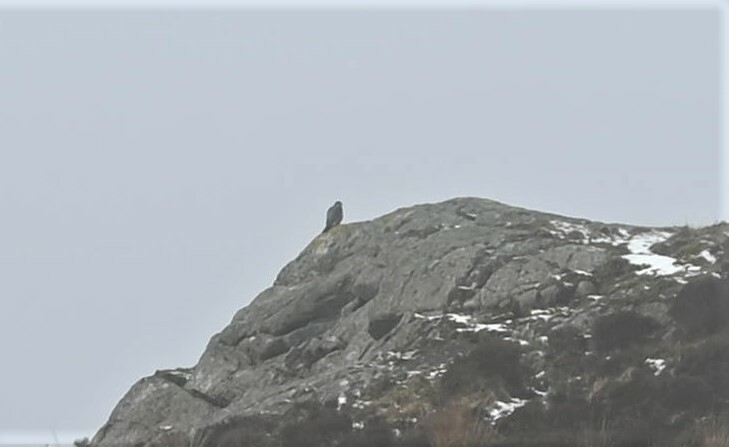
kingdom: Animalia
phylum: Chordata
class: Aves
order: Falconiformes
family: Falconidae
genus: Falco
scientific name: Falco peregrinus
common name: Peregrine falcon
